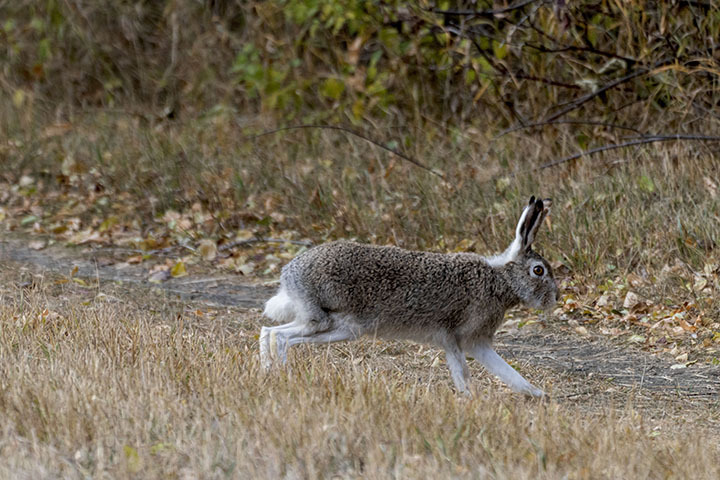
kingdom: Animalia
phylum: Chordata
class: Mammalia
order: Lagomorpha
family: Leporidae
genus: Lepus
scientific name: Lepus townsendii
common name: White-tailed jackrabbit
